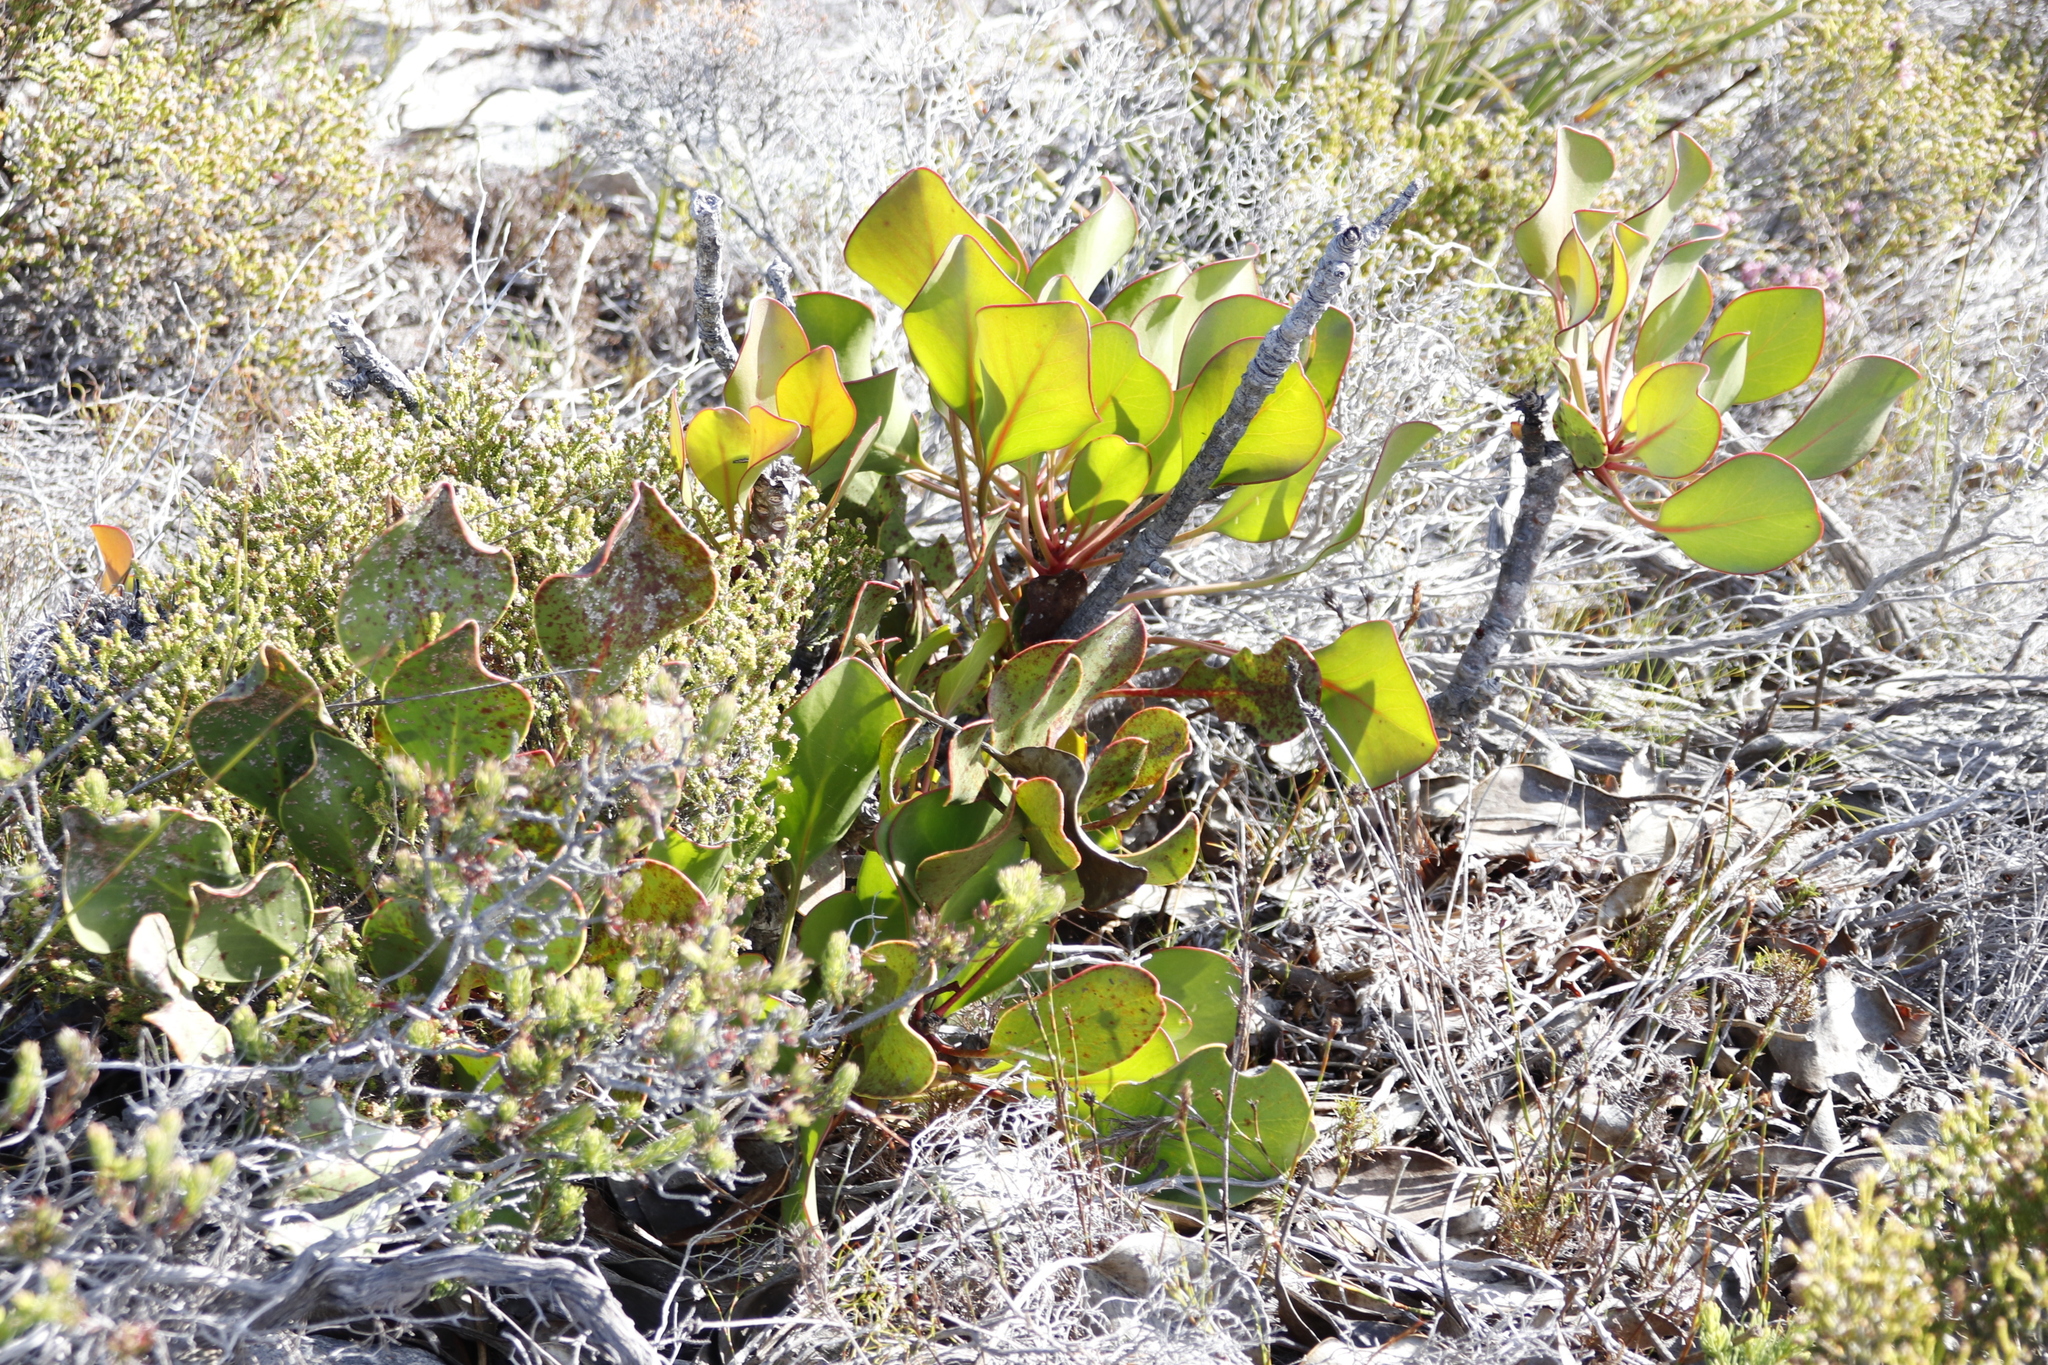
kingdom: Plantae
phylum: Tracheophyta
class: Magnoliopsida
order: Proteales
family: Proteaceae
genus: Protea
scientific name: Protea cynaroides
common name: King protea
